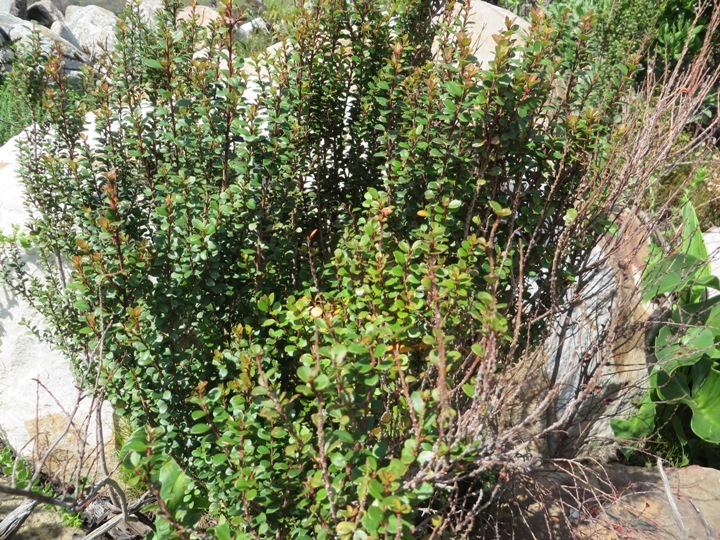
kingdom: Plantae
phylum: Tracheophyta
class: Magnoliopsida
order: Ericales
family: Primulaceae
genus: Myrsine
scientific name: Myrsine africana
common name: African-boxwood
